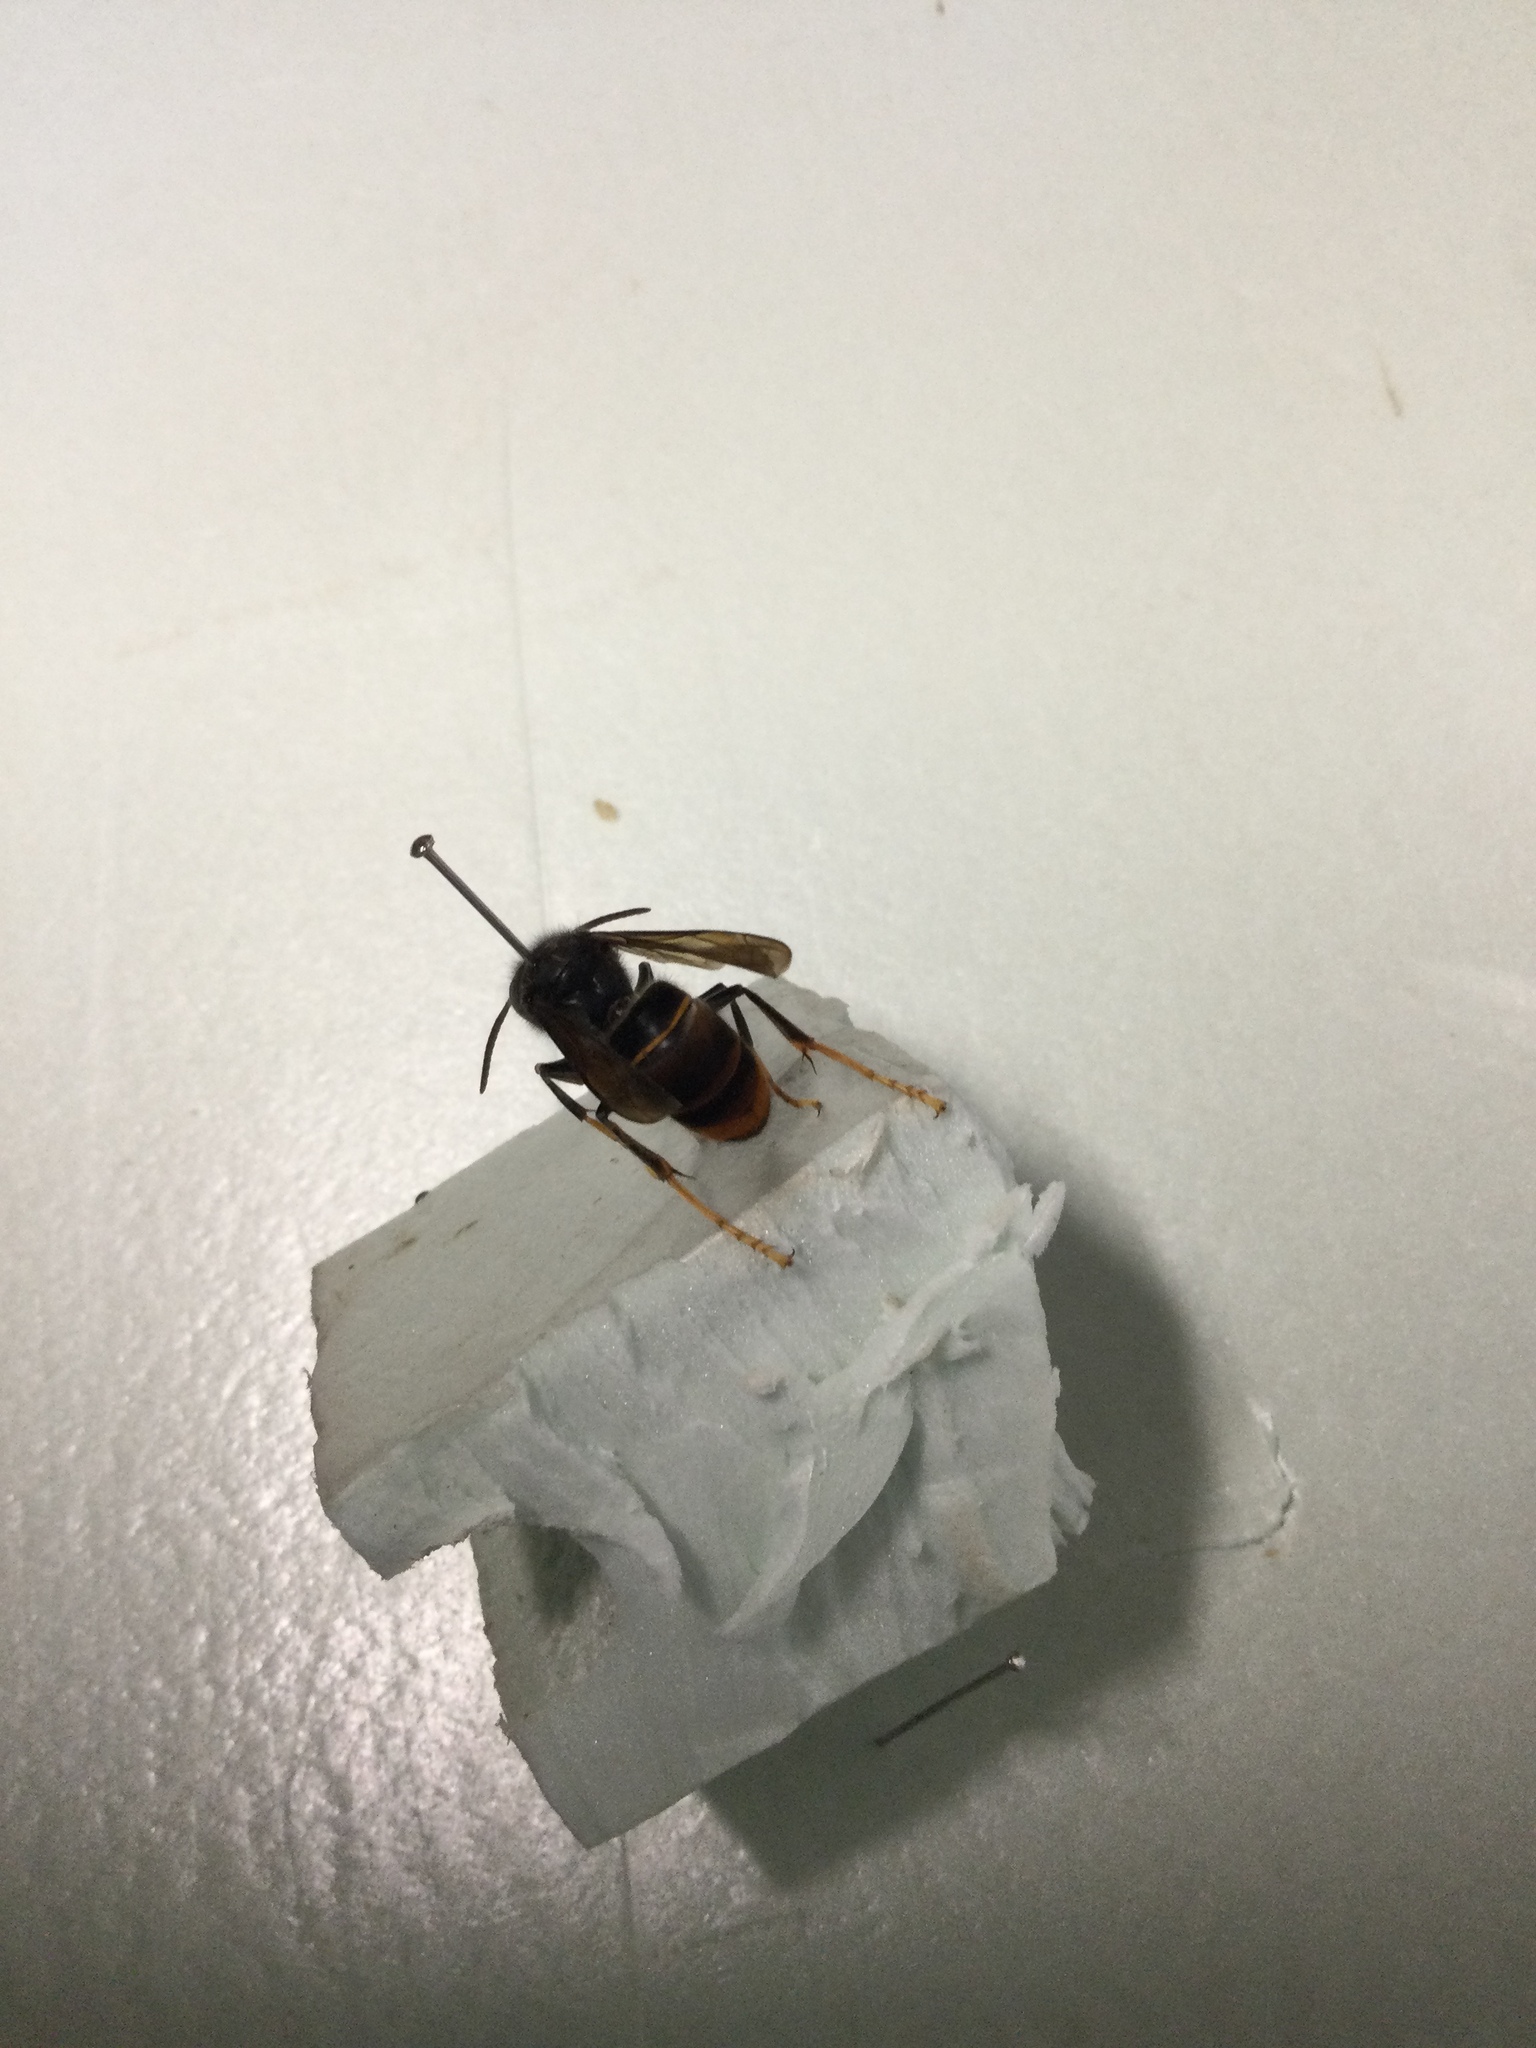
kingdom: Animalia
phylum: Arthropoda
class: Insecta
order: Hymenoptera
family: Vespidae
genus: Vespa
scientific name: Vespa velutina
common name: Asian hornet
